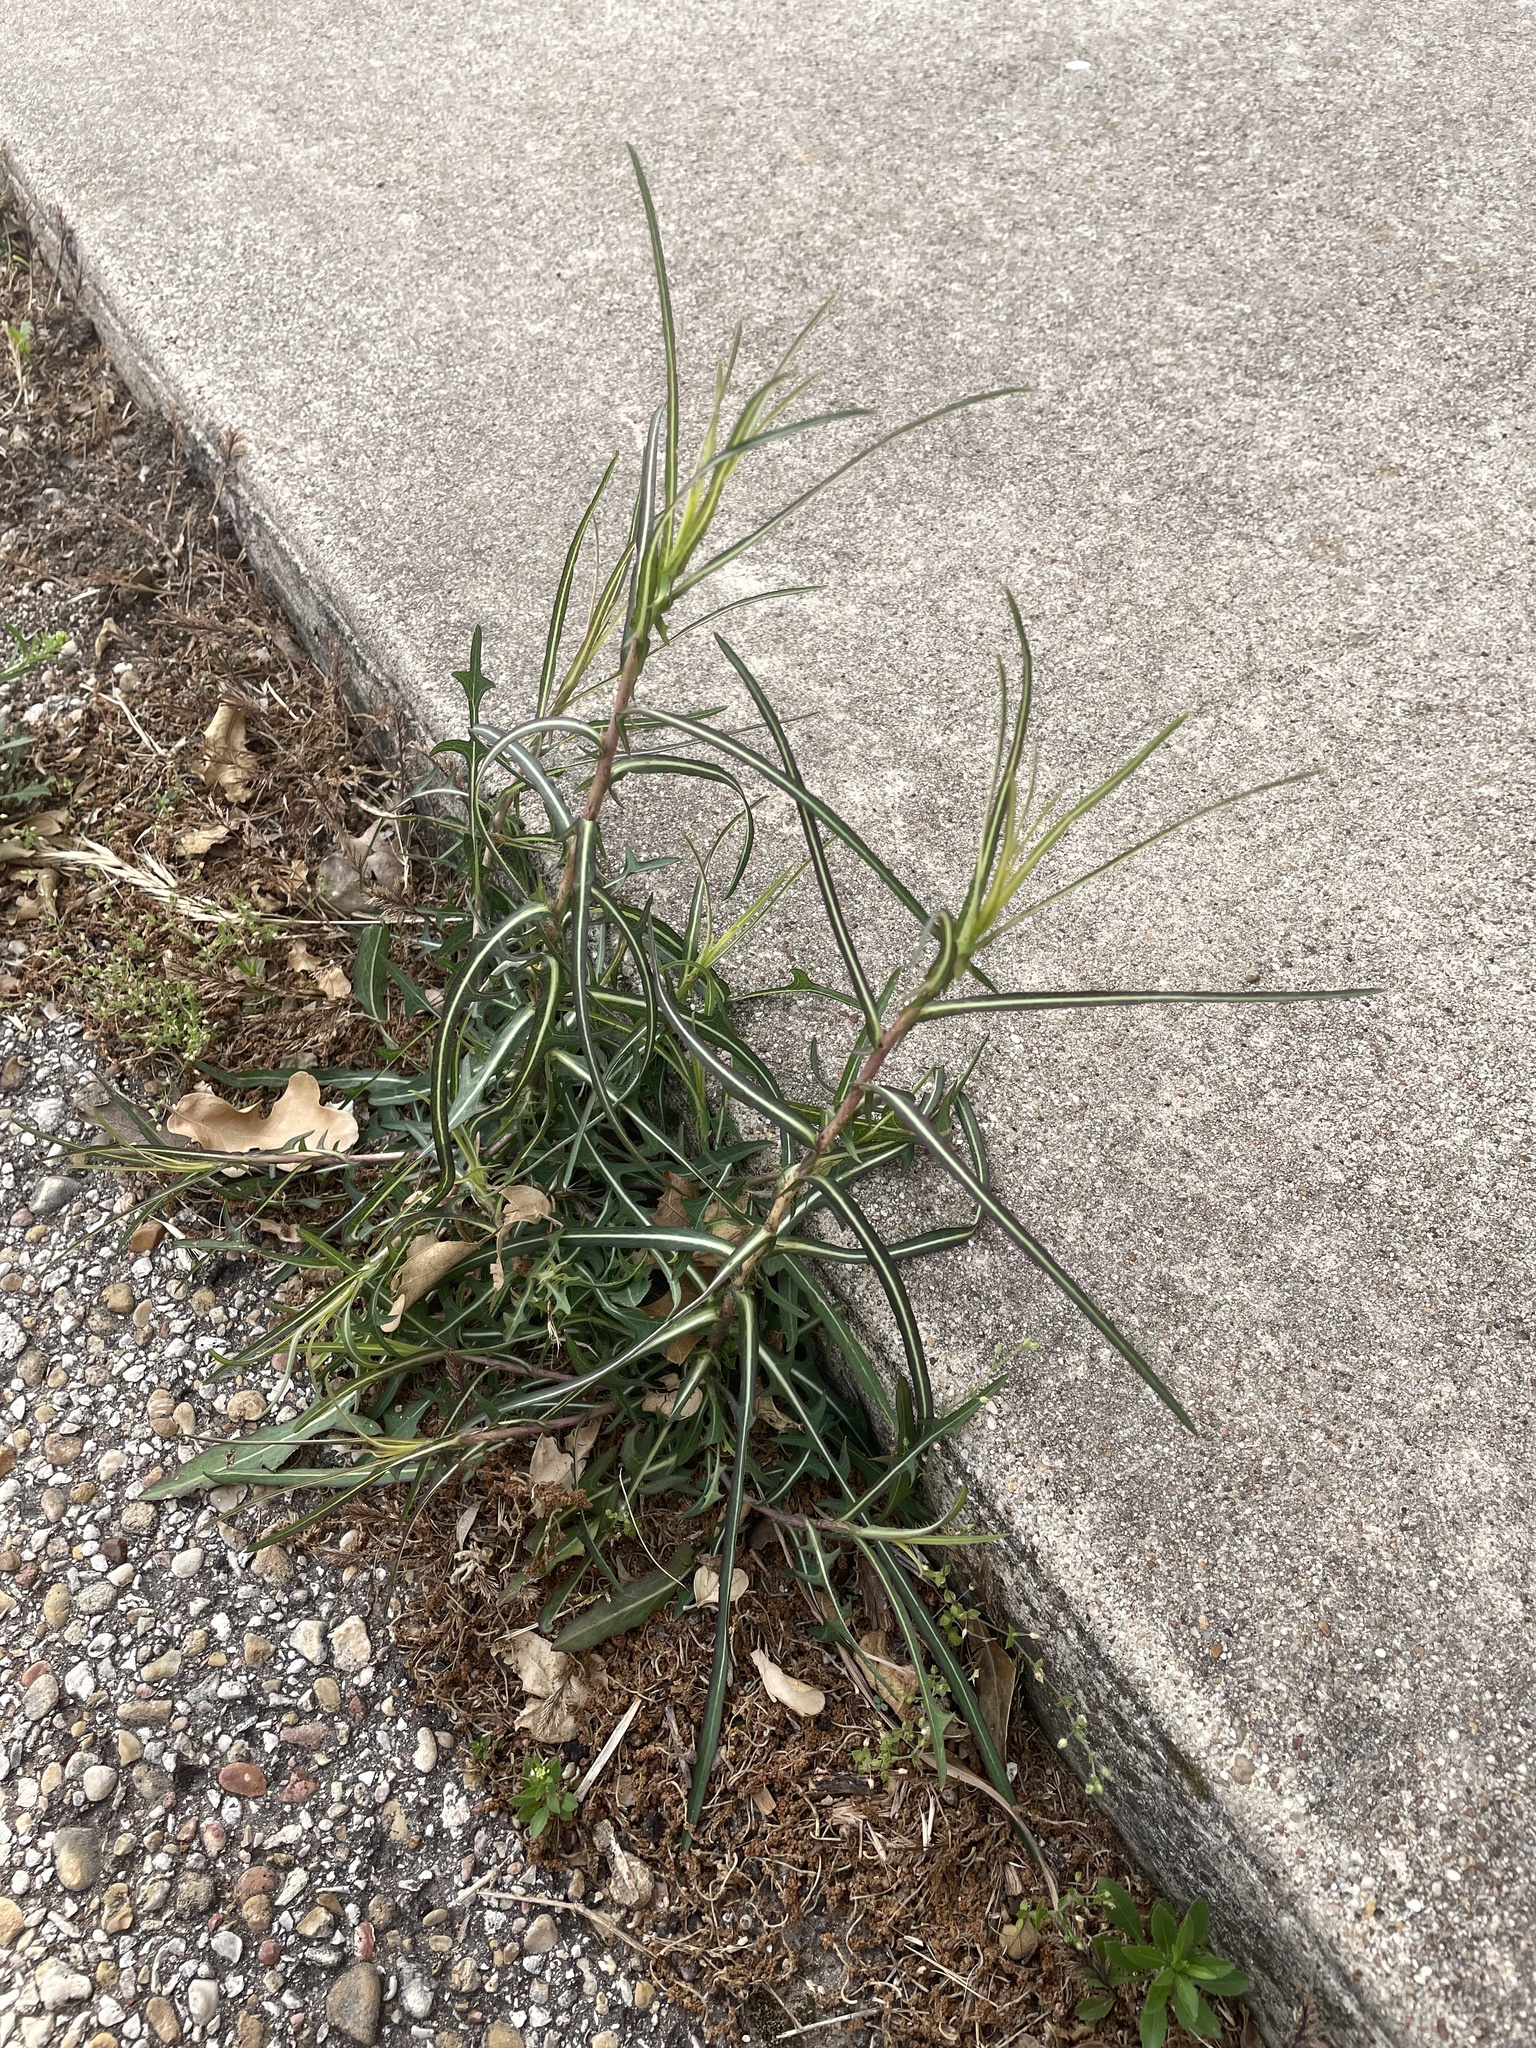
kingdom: Plantae
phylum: Tracheophyta
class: Magnoliopsida
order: Asterales
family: Asteraceae
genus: Lactuca
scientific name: Lactuca saligna
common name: Wild lettuce
